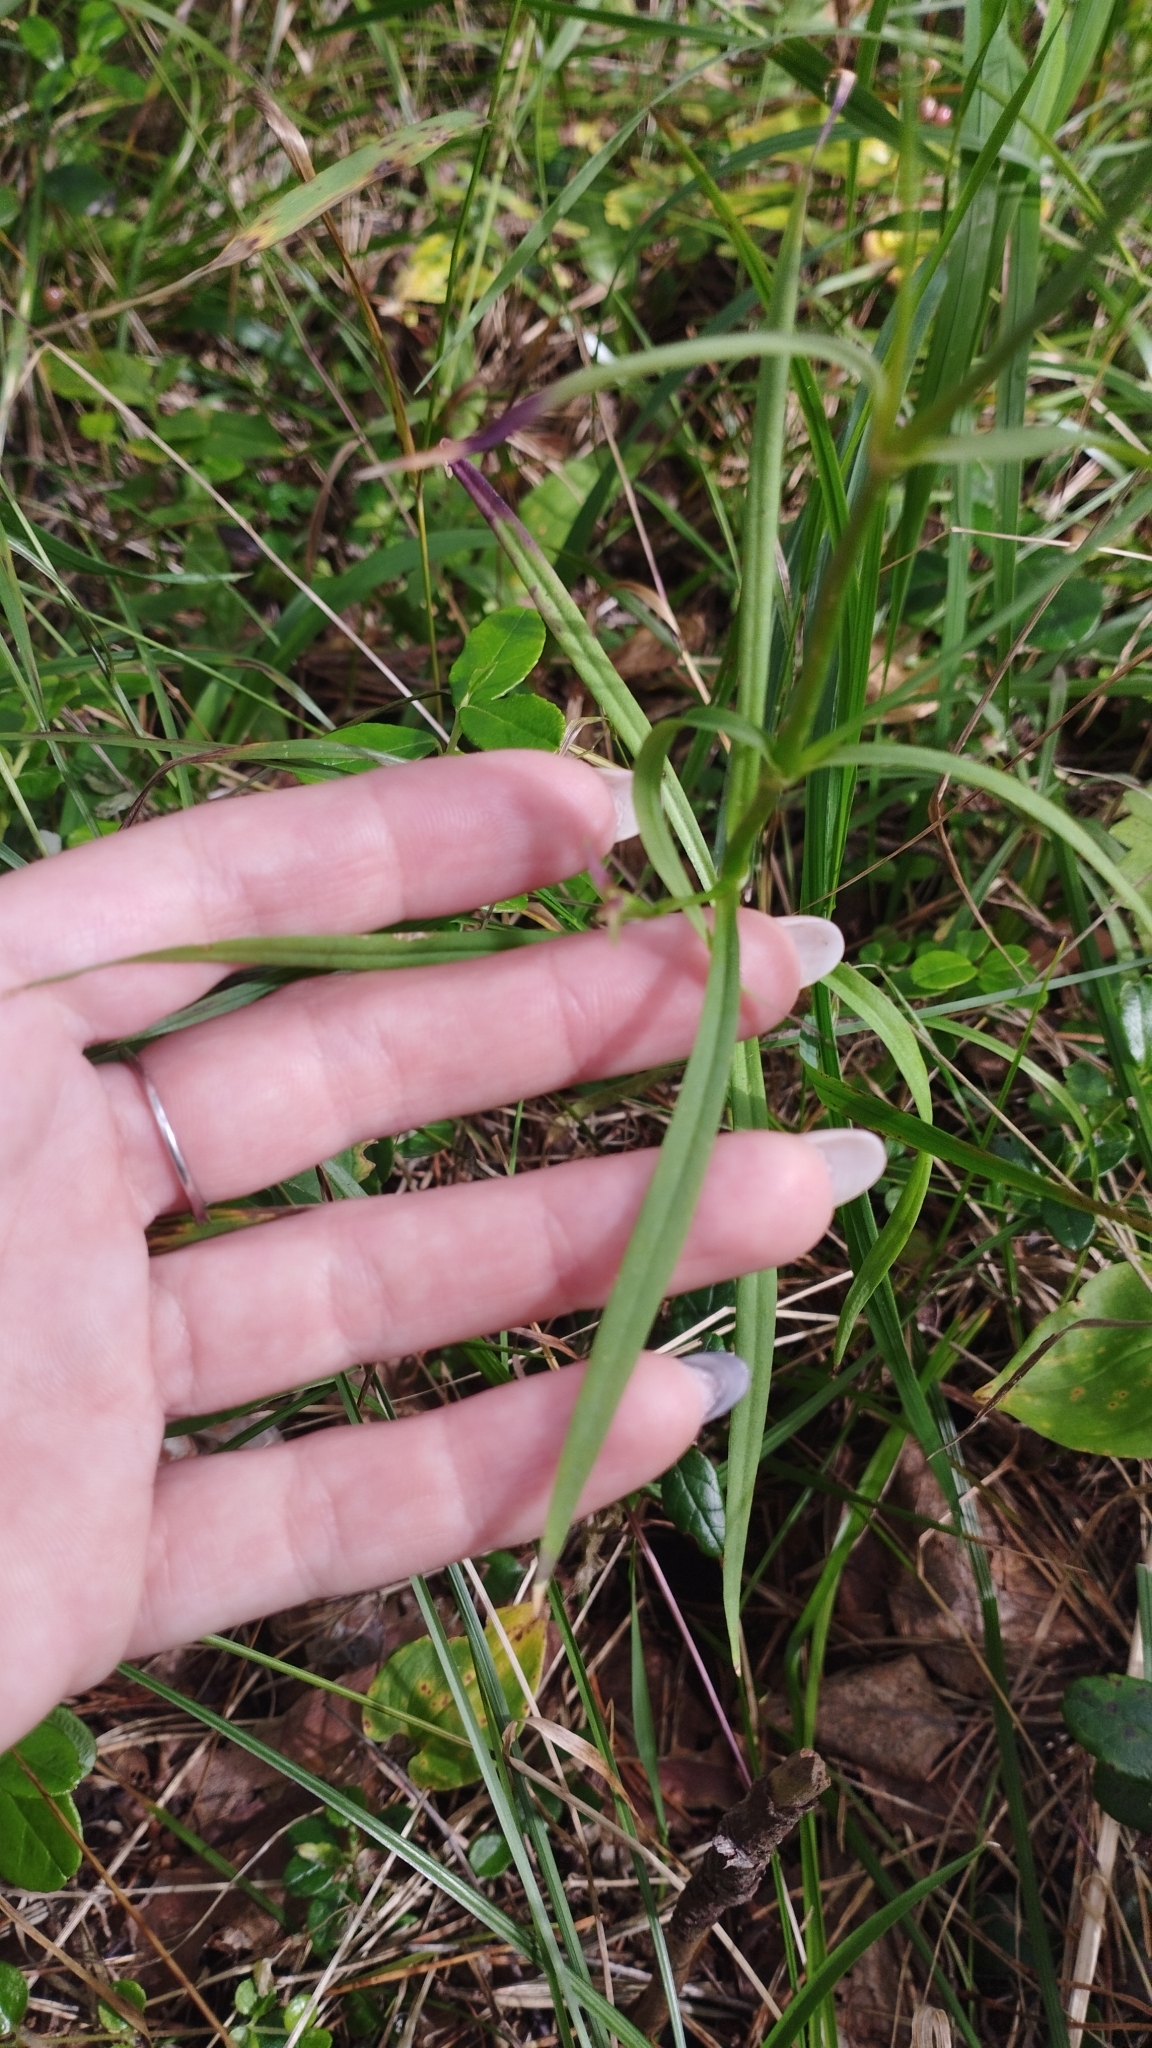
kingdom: Plantae
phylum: Tracheophyta
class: Magnoliopsida
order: Caryophyllales
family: Caryophyllaceae
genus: Dianthus
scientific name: Dianthus superbus
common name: Fringed pink
